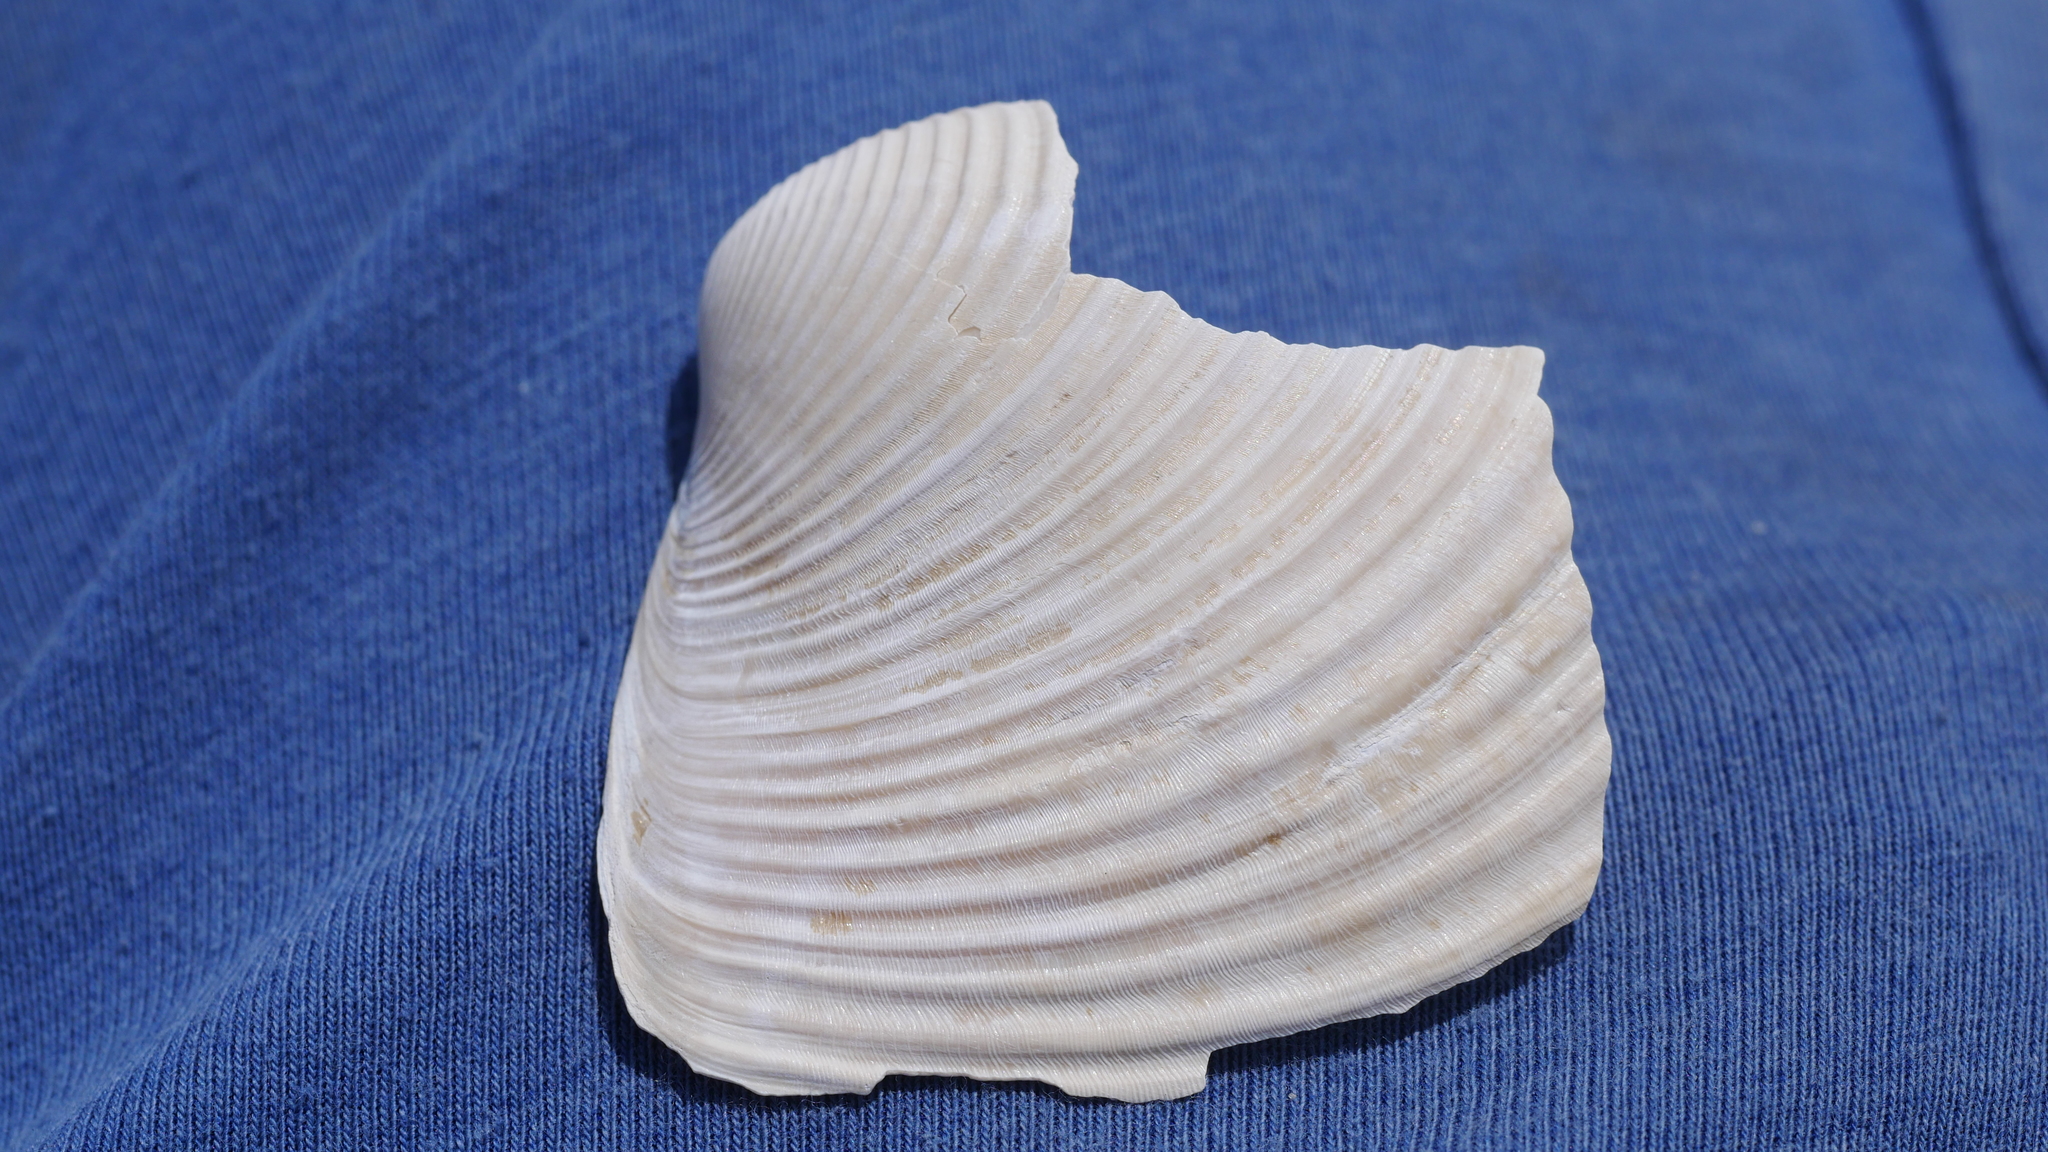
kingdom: Animalia
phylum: Mollusca
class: Bivalvia
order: Venerida
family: Anatinellidae
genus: Raeta
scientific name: Raeta plicatella
